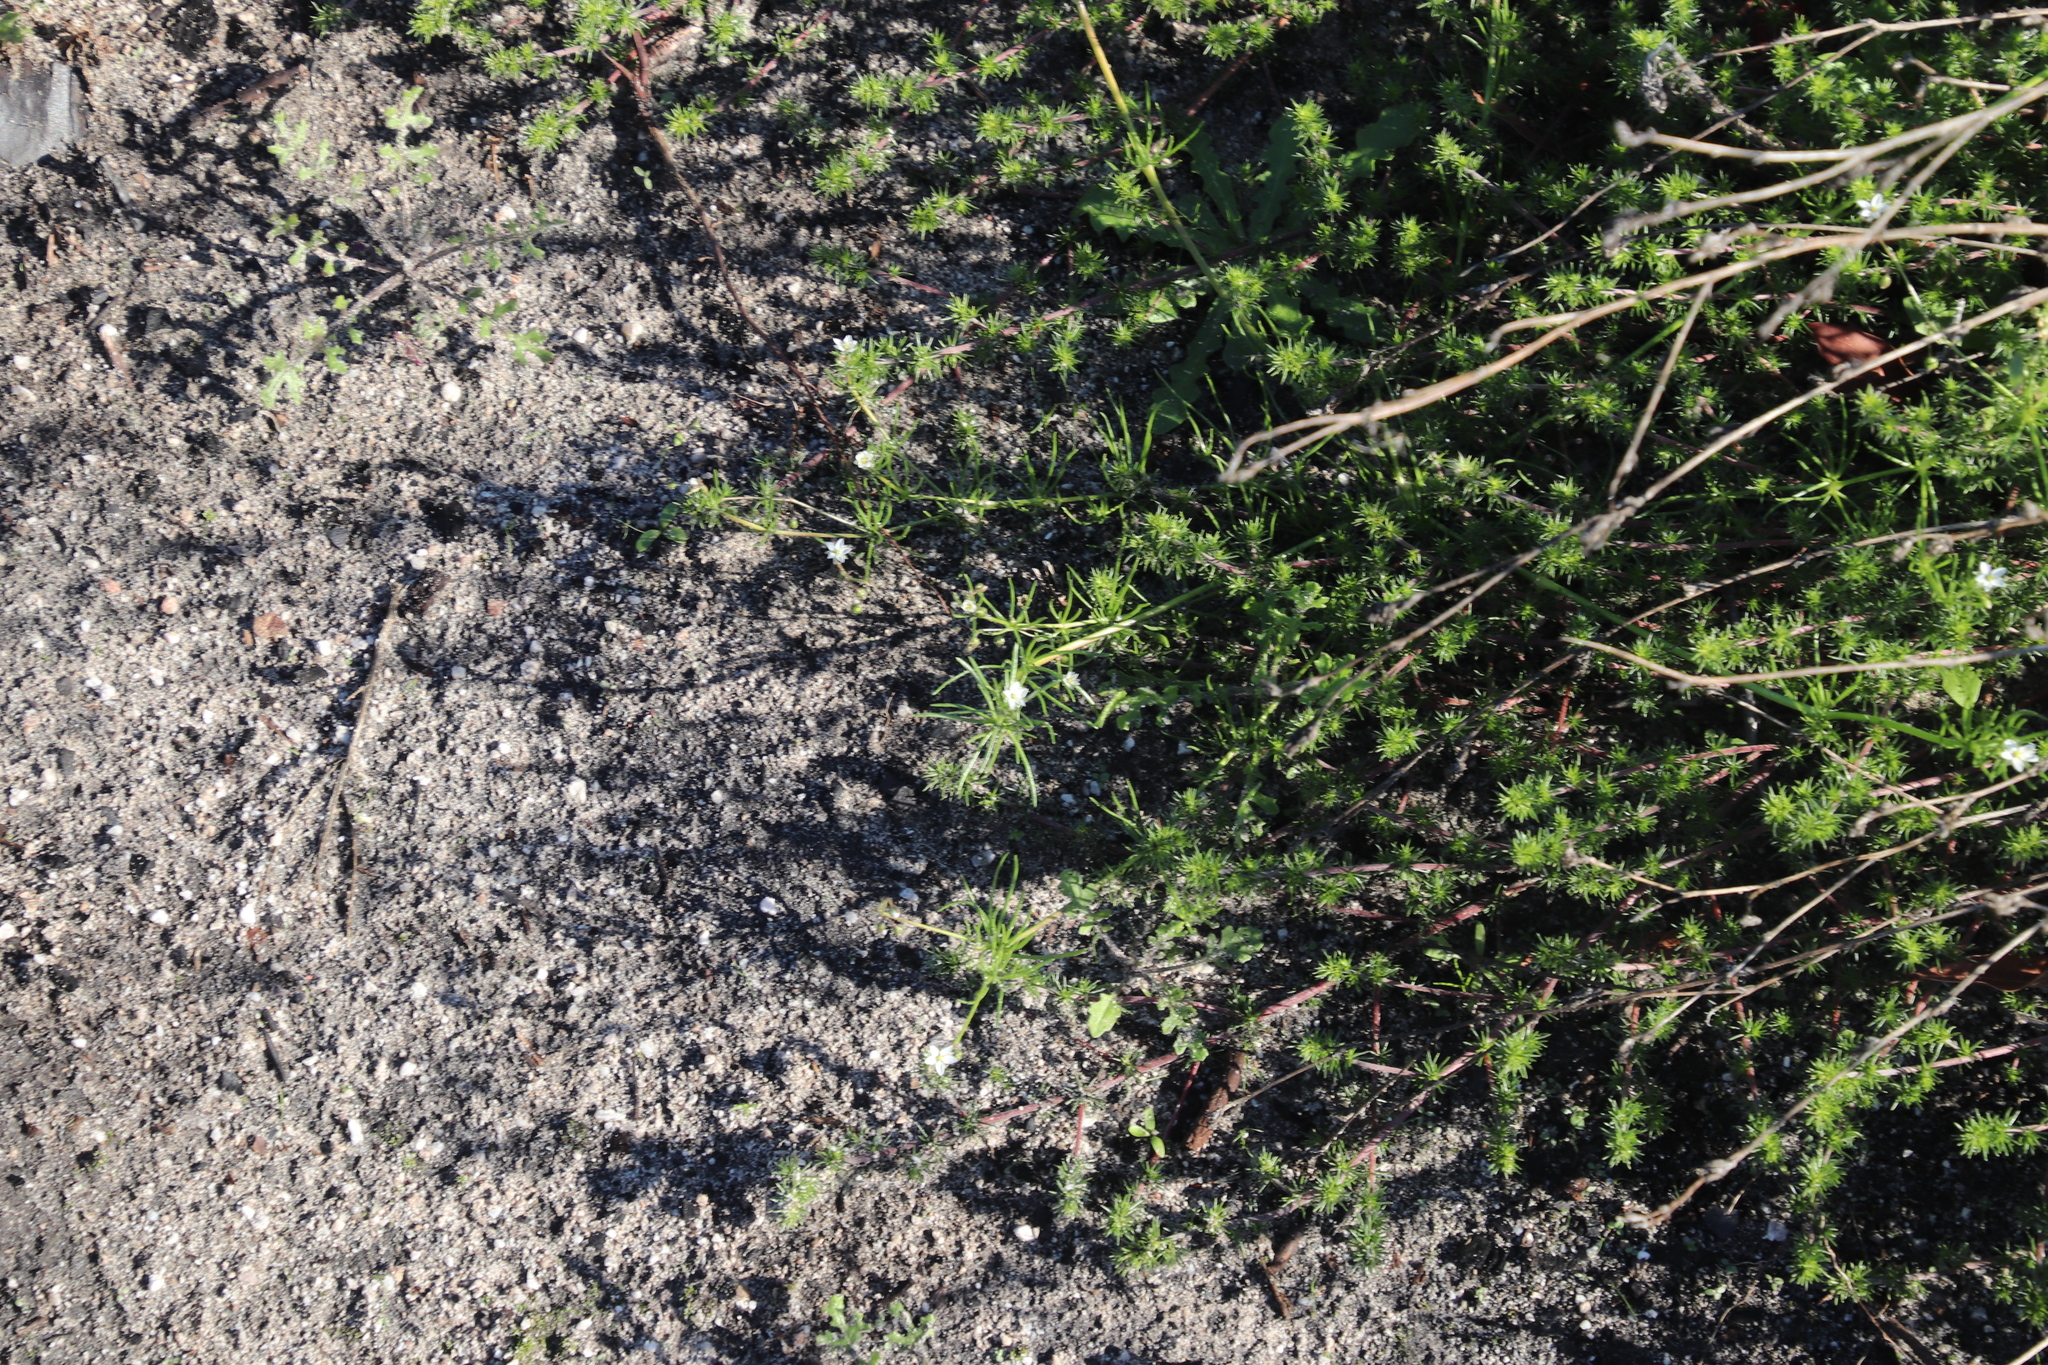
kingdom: Plantae
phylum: Tracheophyta
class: Magnoliopsida
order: Caryophyllales
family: Caryophyllaceae
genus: Spergula
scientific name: Spergula arvensis
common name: Corn spurrey
